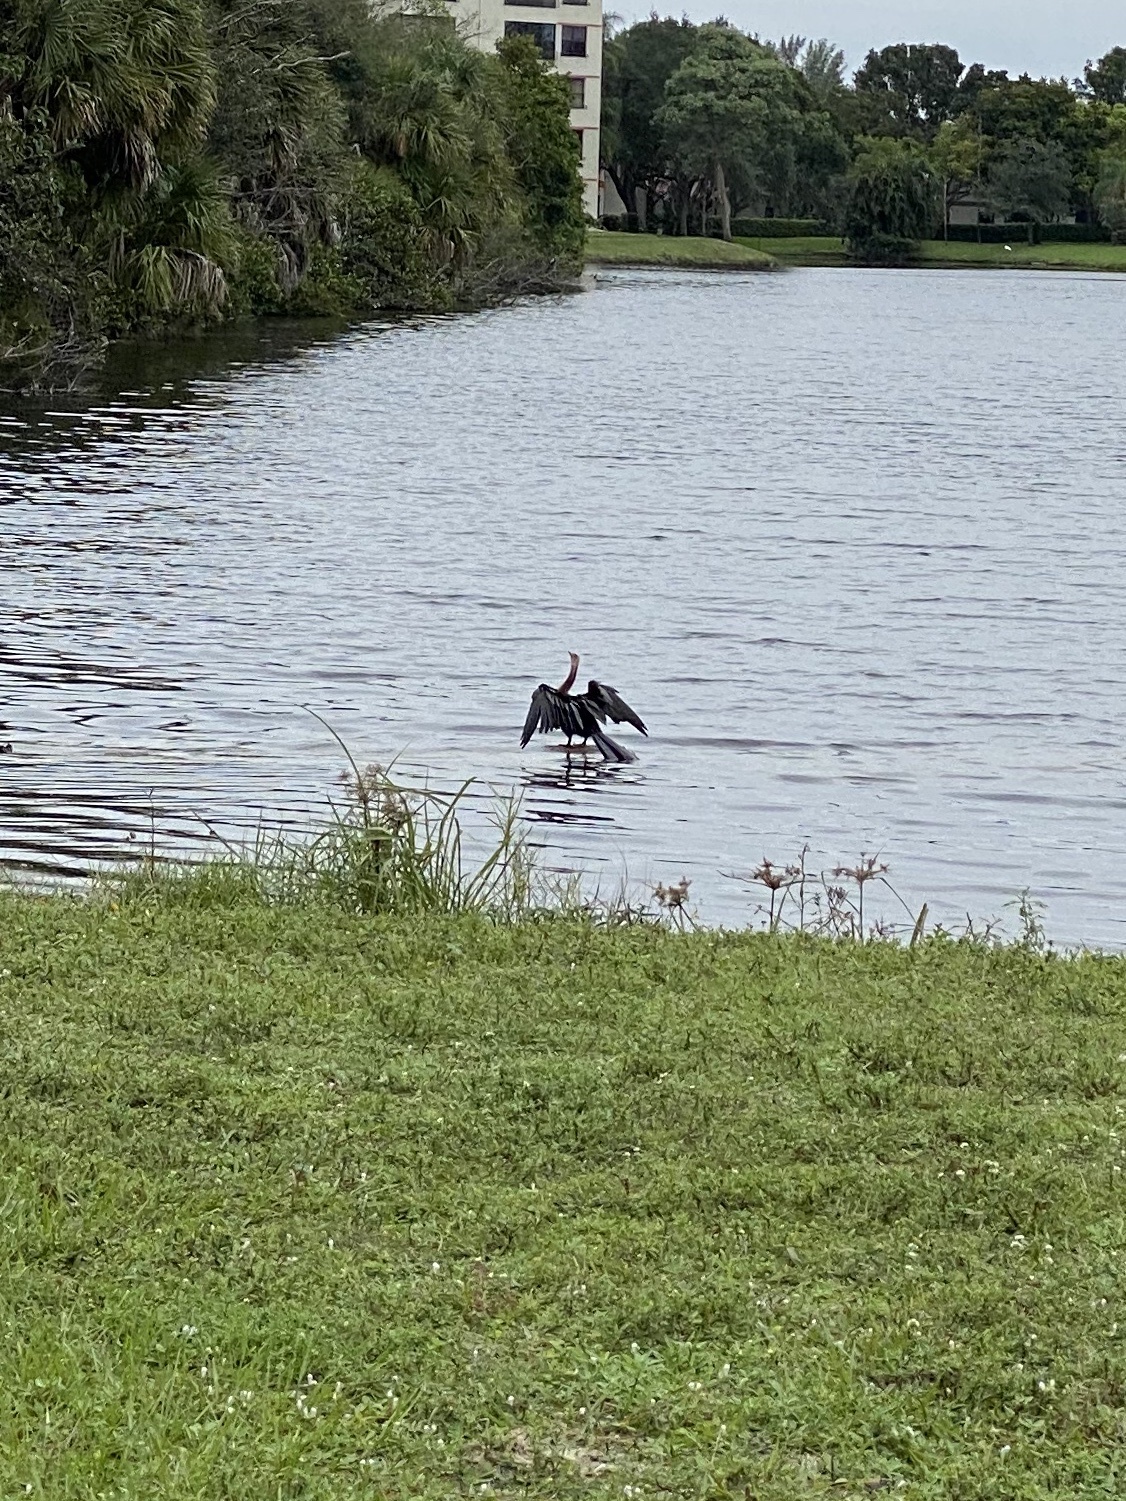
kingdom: Animalia
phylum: Chordata
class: Aves
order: Suliformes
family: Anhingidae
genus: Anhinga
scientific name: Anhinga anhinga
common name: Anhinga
